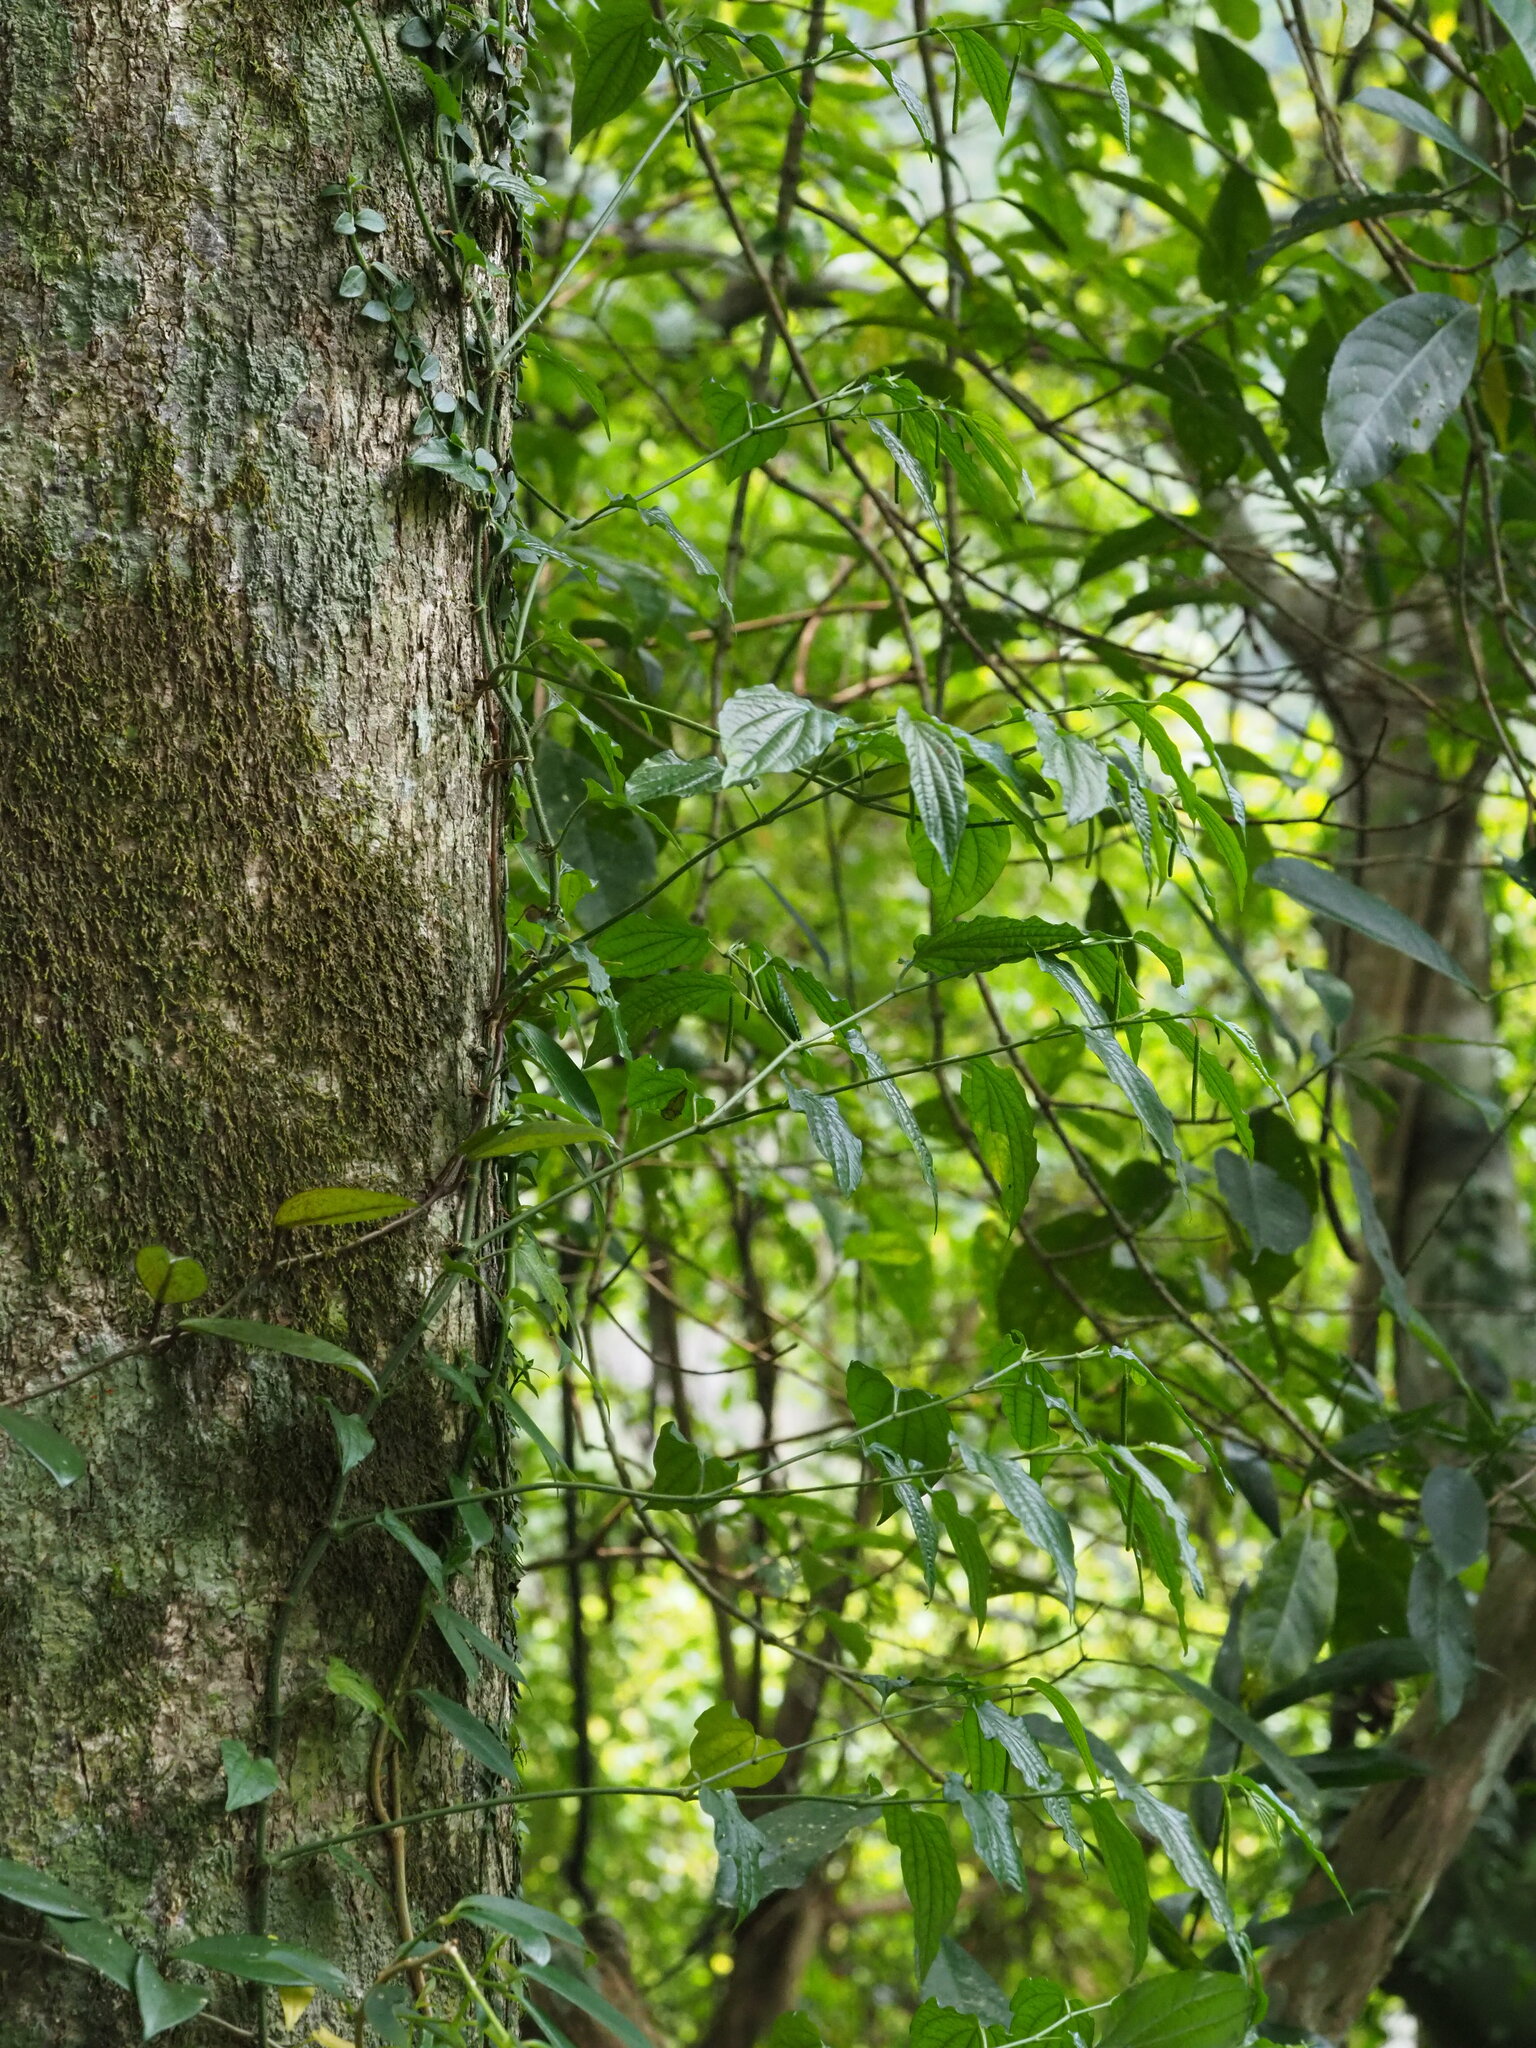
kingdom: Plantae
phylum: Tracheophyta
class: Magnoliopsida
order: Piperales
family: Piperaceae
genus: Piper
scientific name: Piper sintenense
